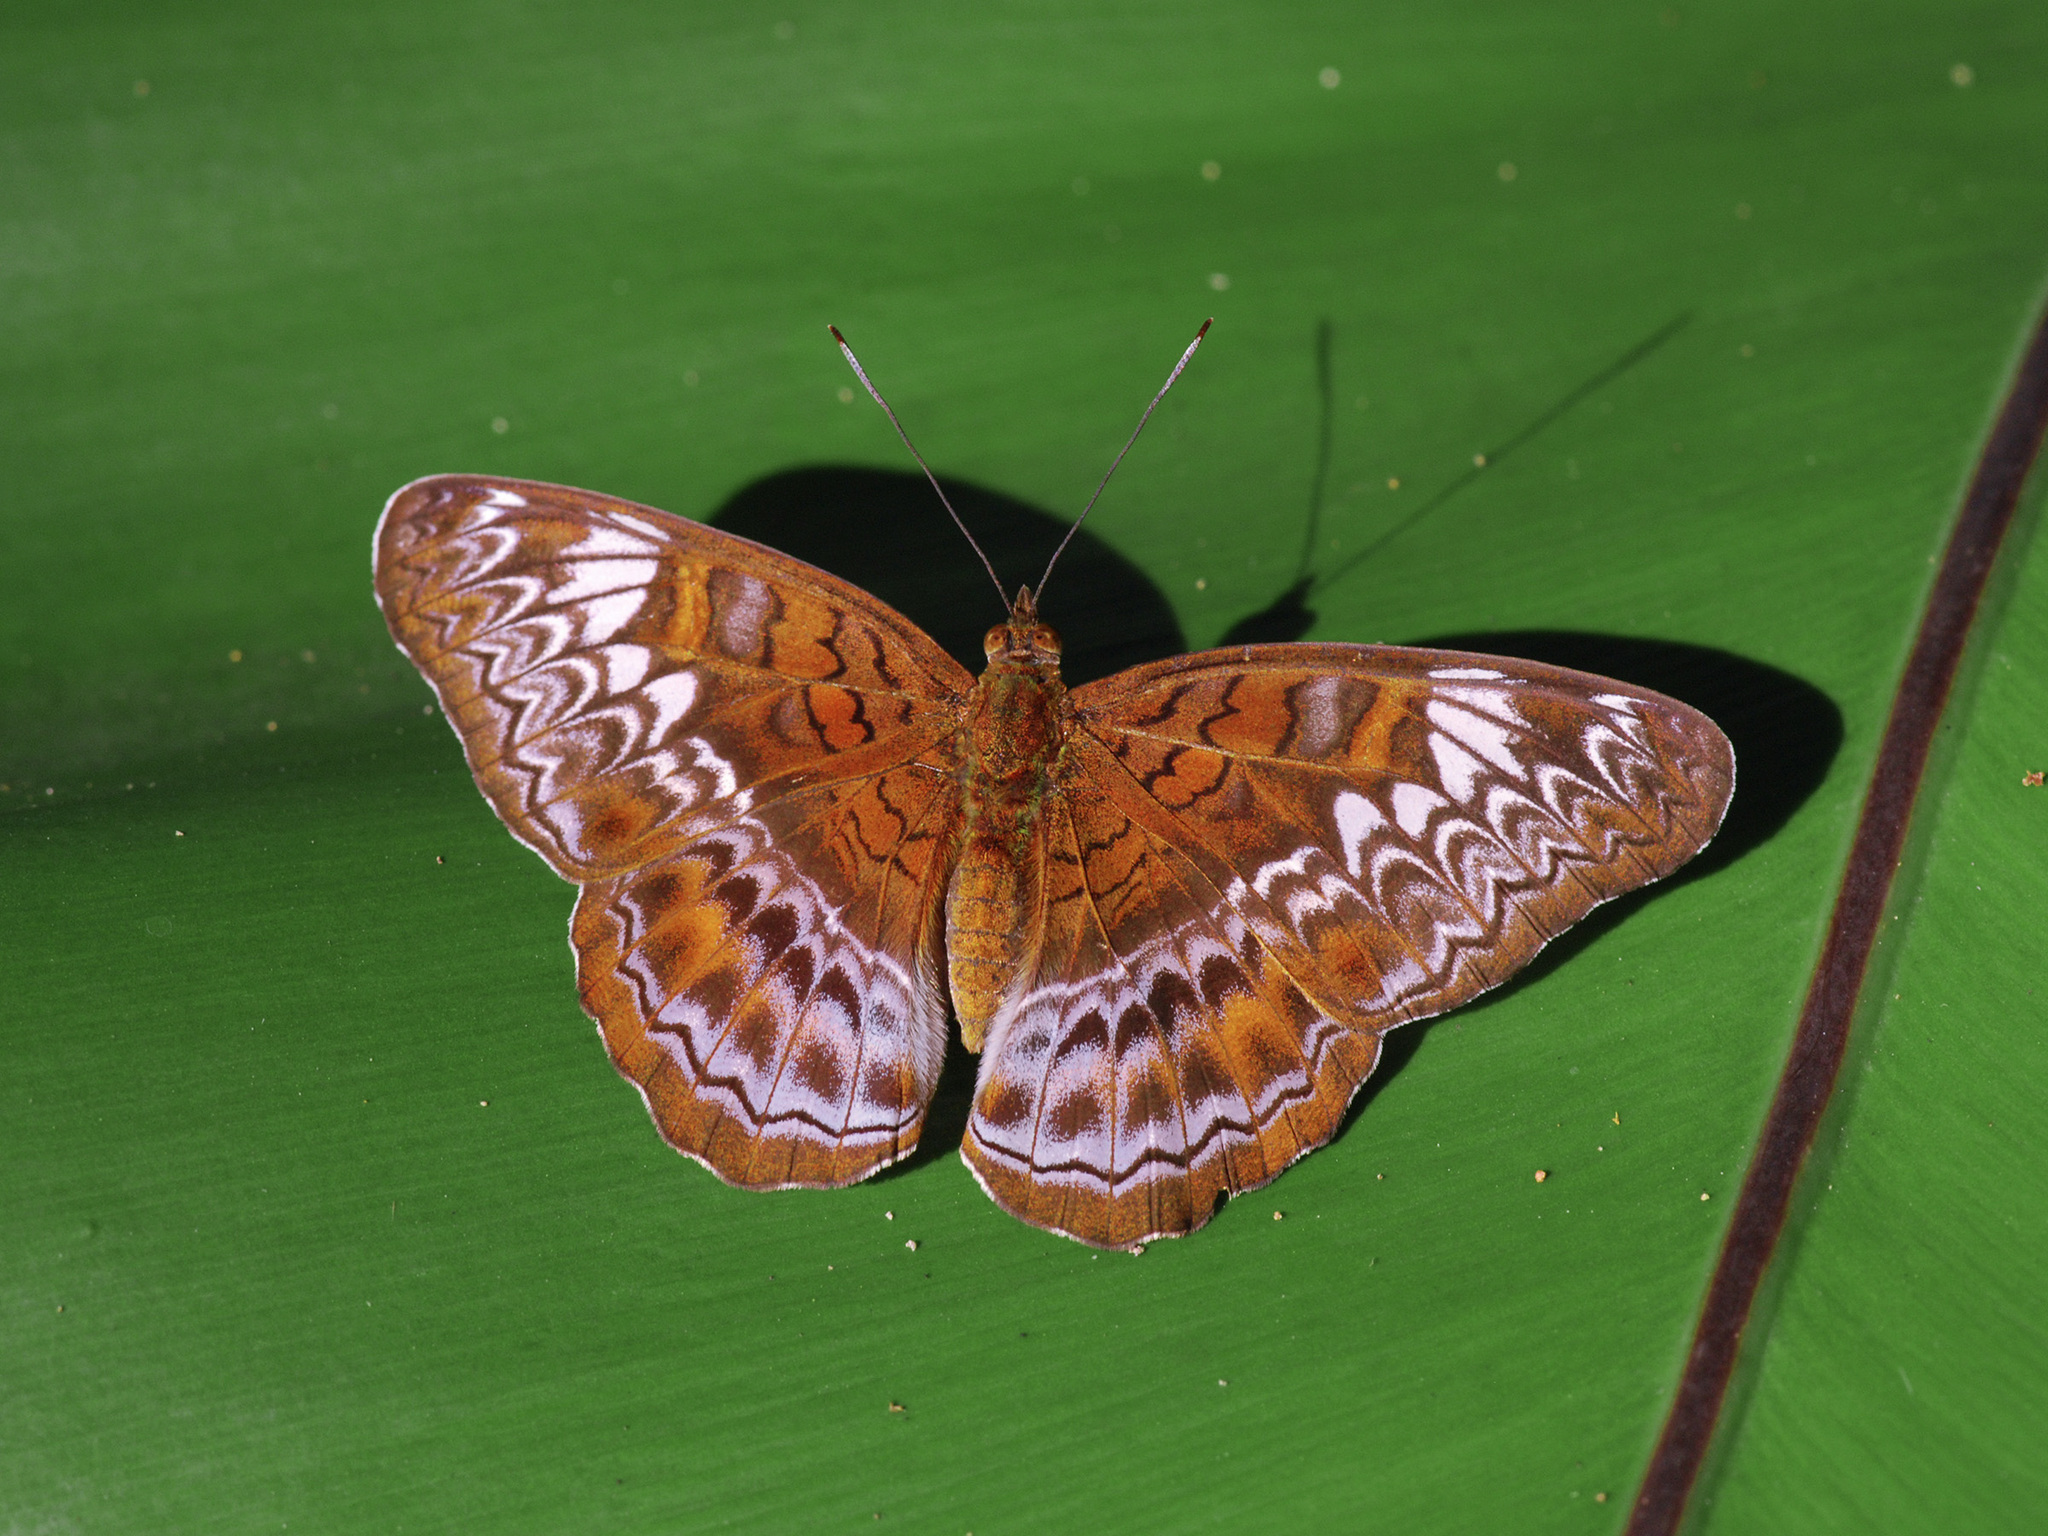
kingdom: Animalia
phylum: Arthropoda
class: Insecta
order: Lepidoptera
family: Nymphalidae
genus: Lebadea
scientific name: Lebadea martha
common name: Knight
